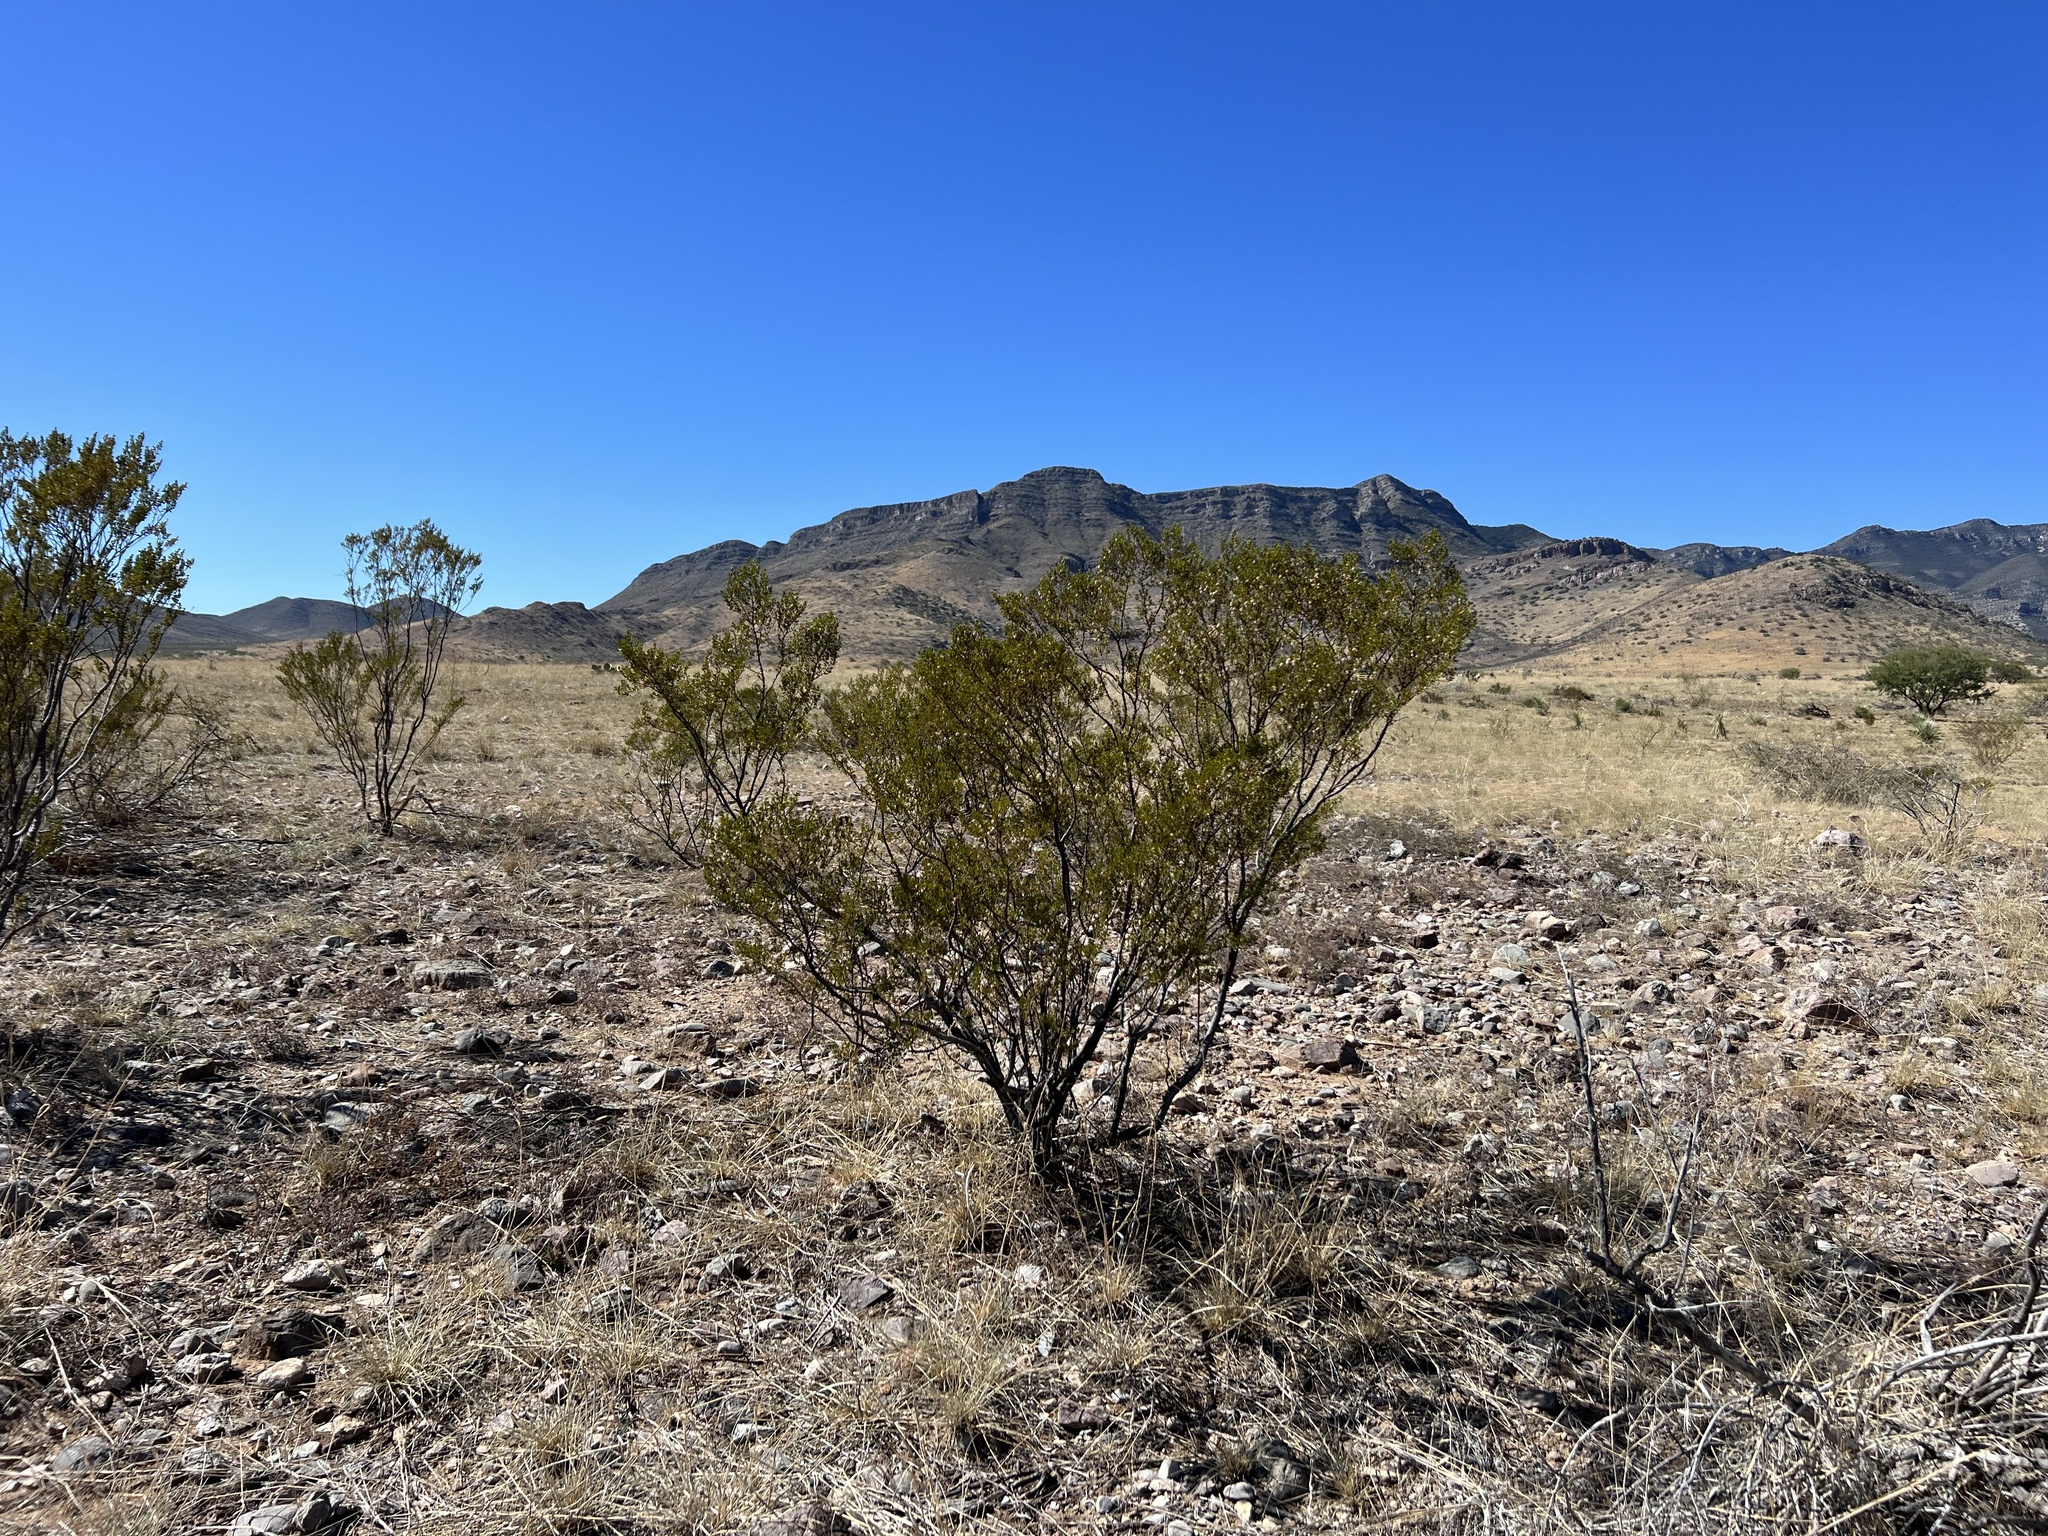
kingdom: Plantae
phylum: Tracheophyta
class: Magnoliopsida
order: Zygophyllales
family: Zygophyllaceae
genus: Larrea
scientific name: Larrea tridentata
